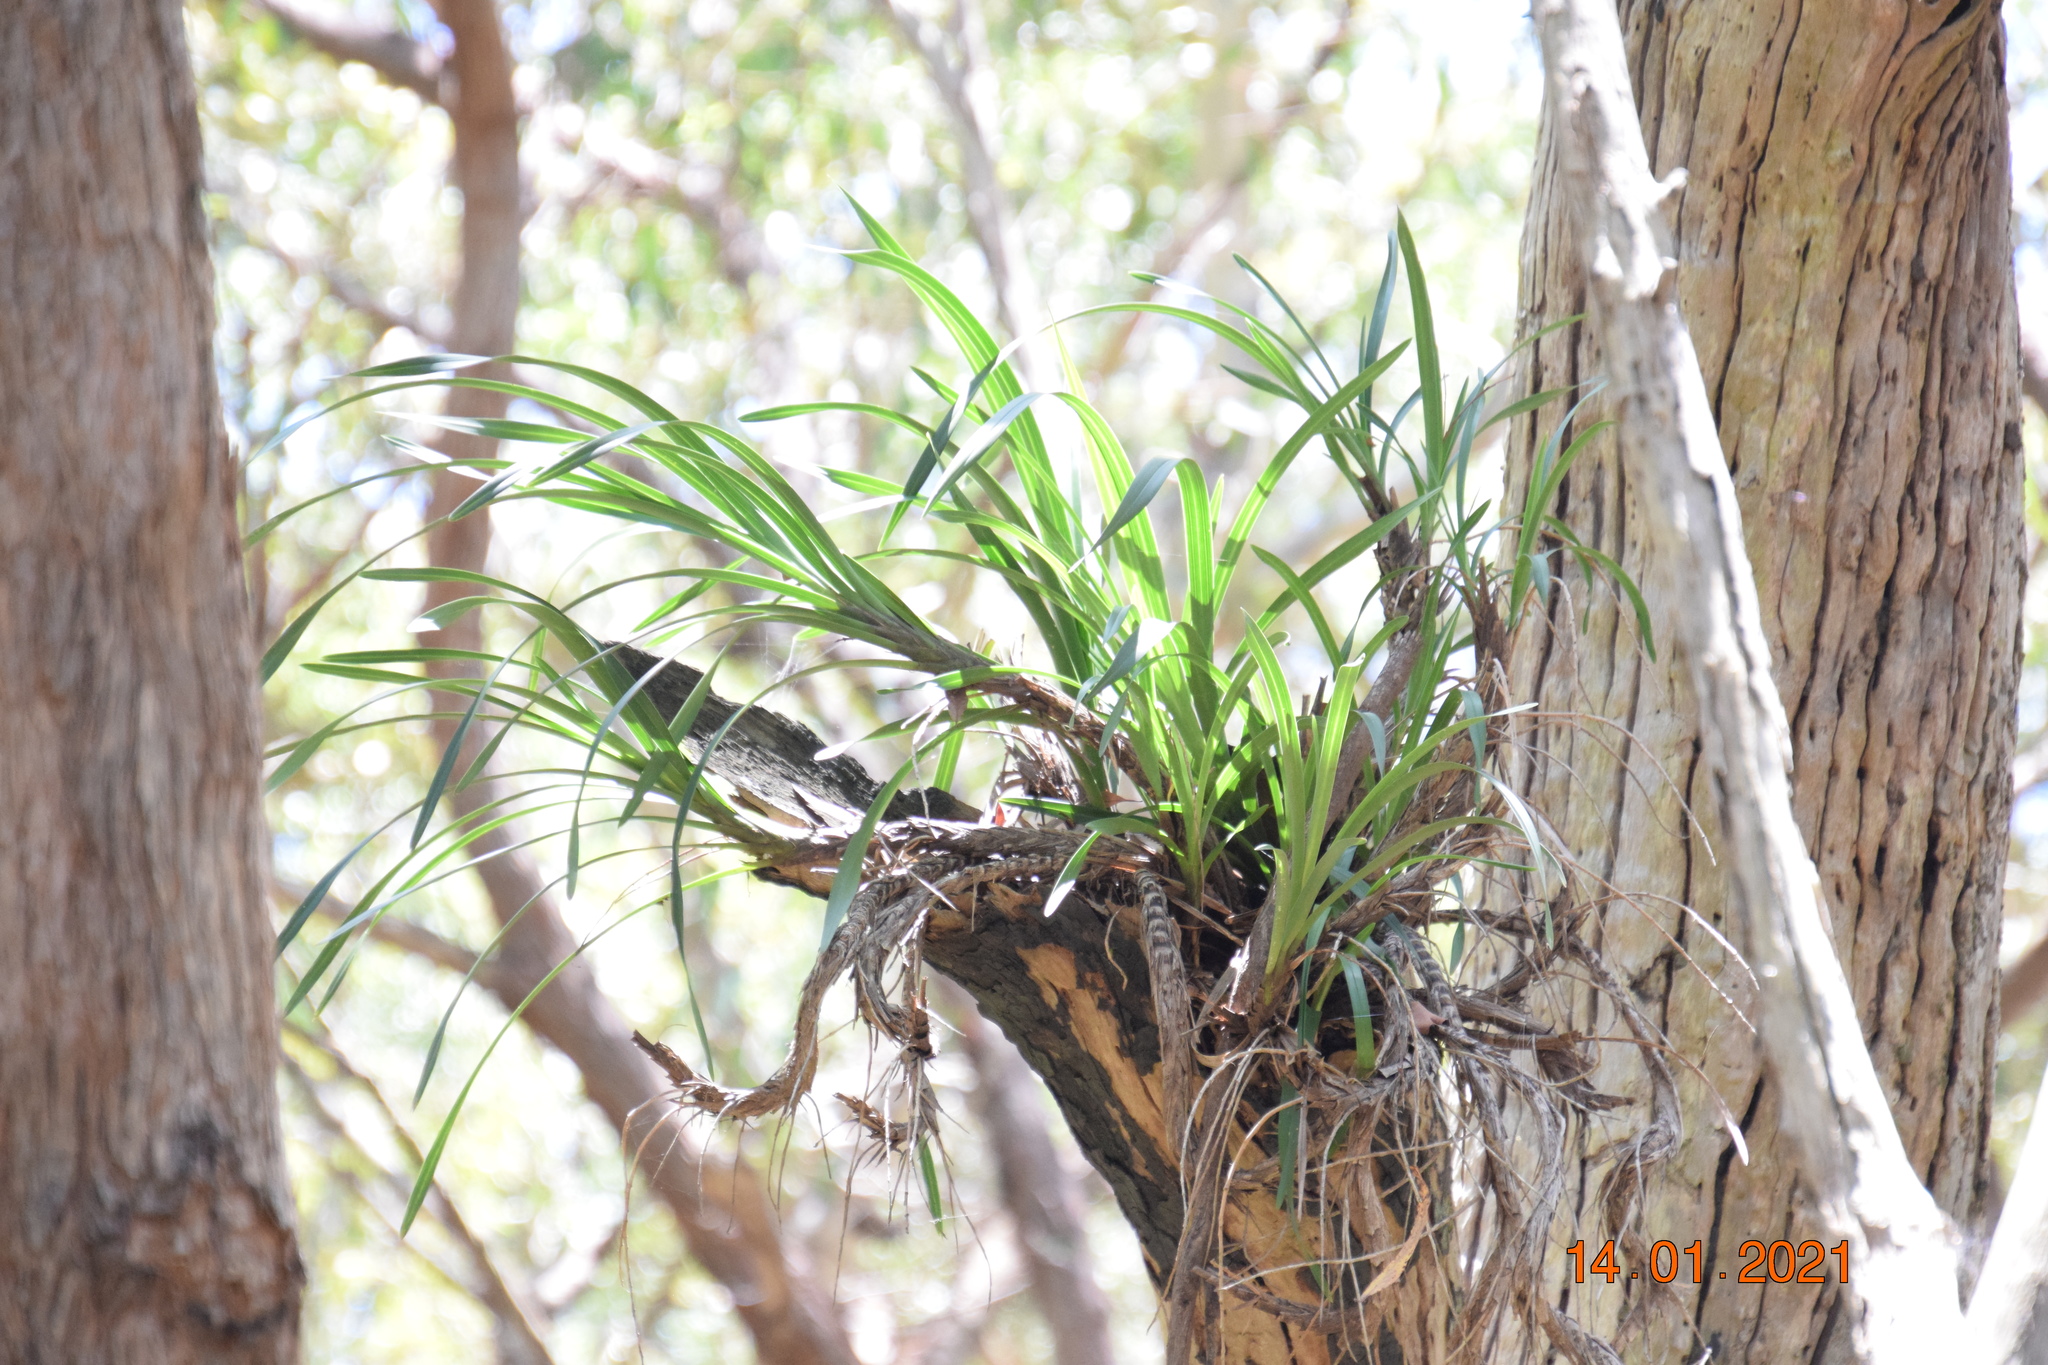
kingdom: Plantae
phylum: Tracheophyta
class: Liliopsida
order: Asparagales
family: Orchidaceae
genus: Cymbidium
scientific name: Cymbidium suave
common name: Snake orchid
